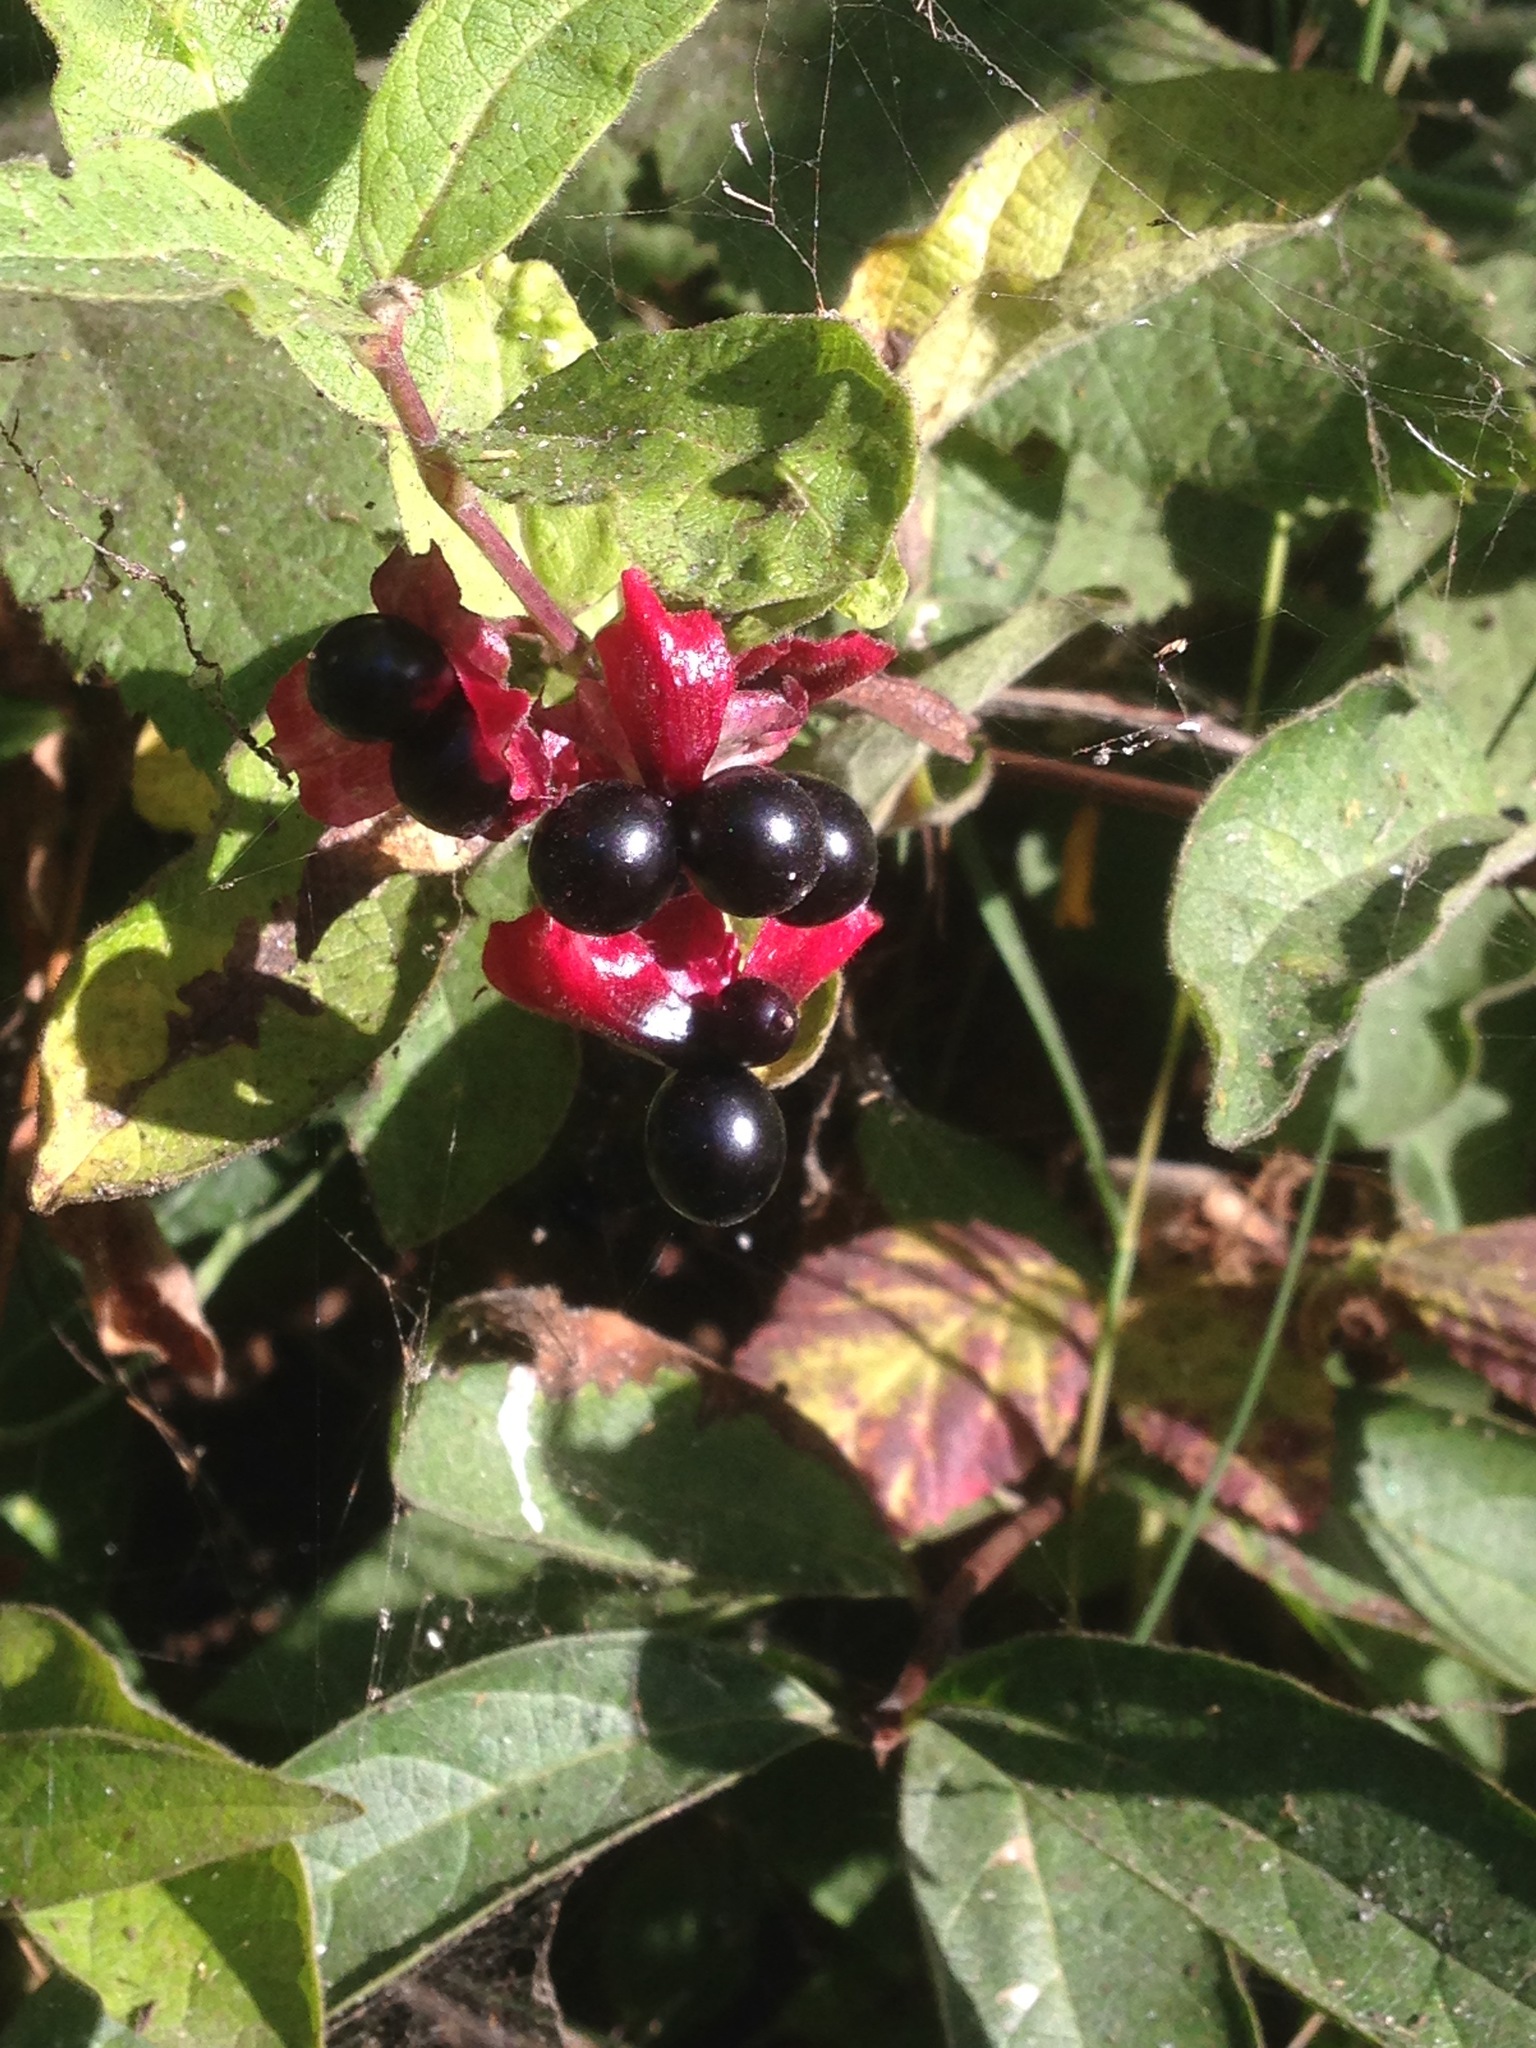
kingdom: Plantae
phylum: Tracheophyta
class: Magnoliopsida
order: Dipsacales
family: Caprifoliaceae
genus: Lonicera
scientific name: Lonicera involucrata
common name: Californian honeysuckle
